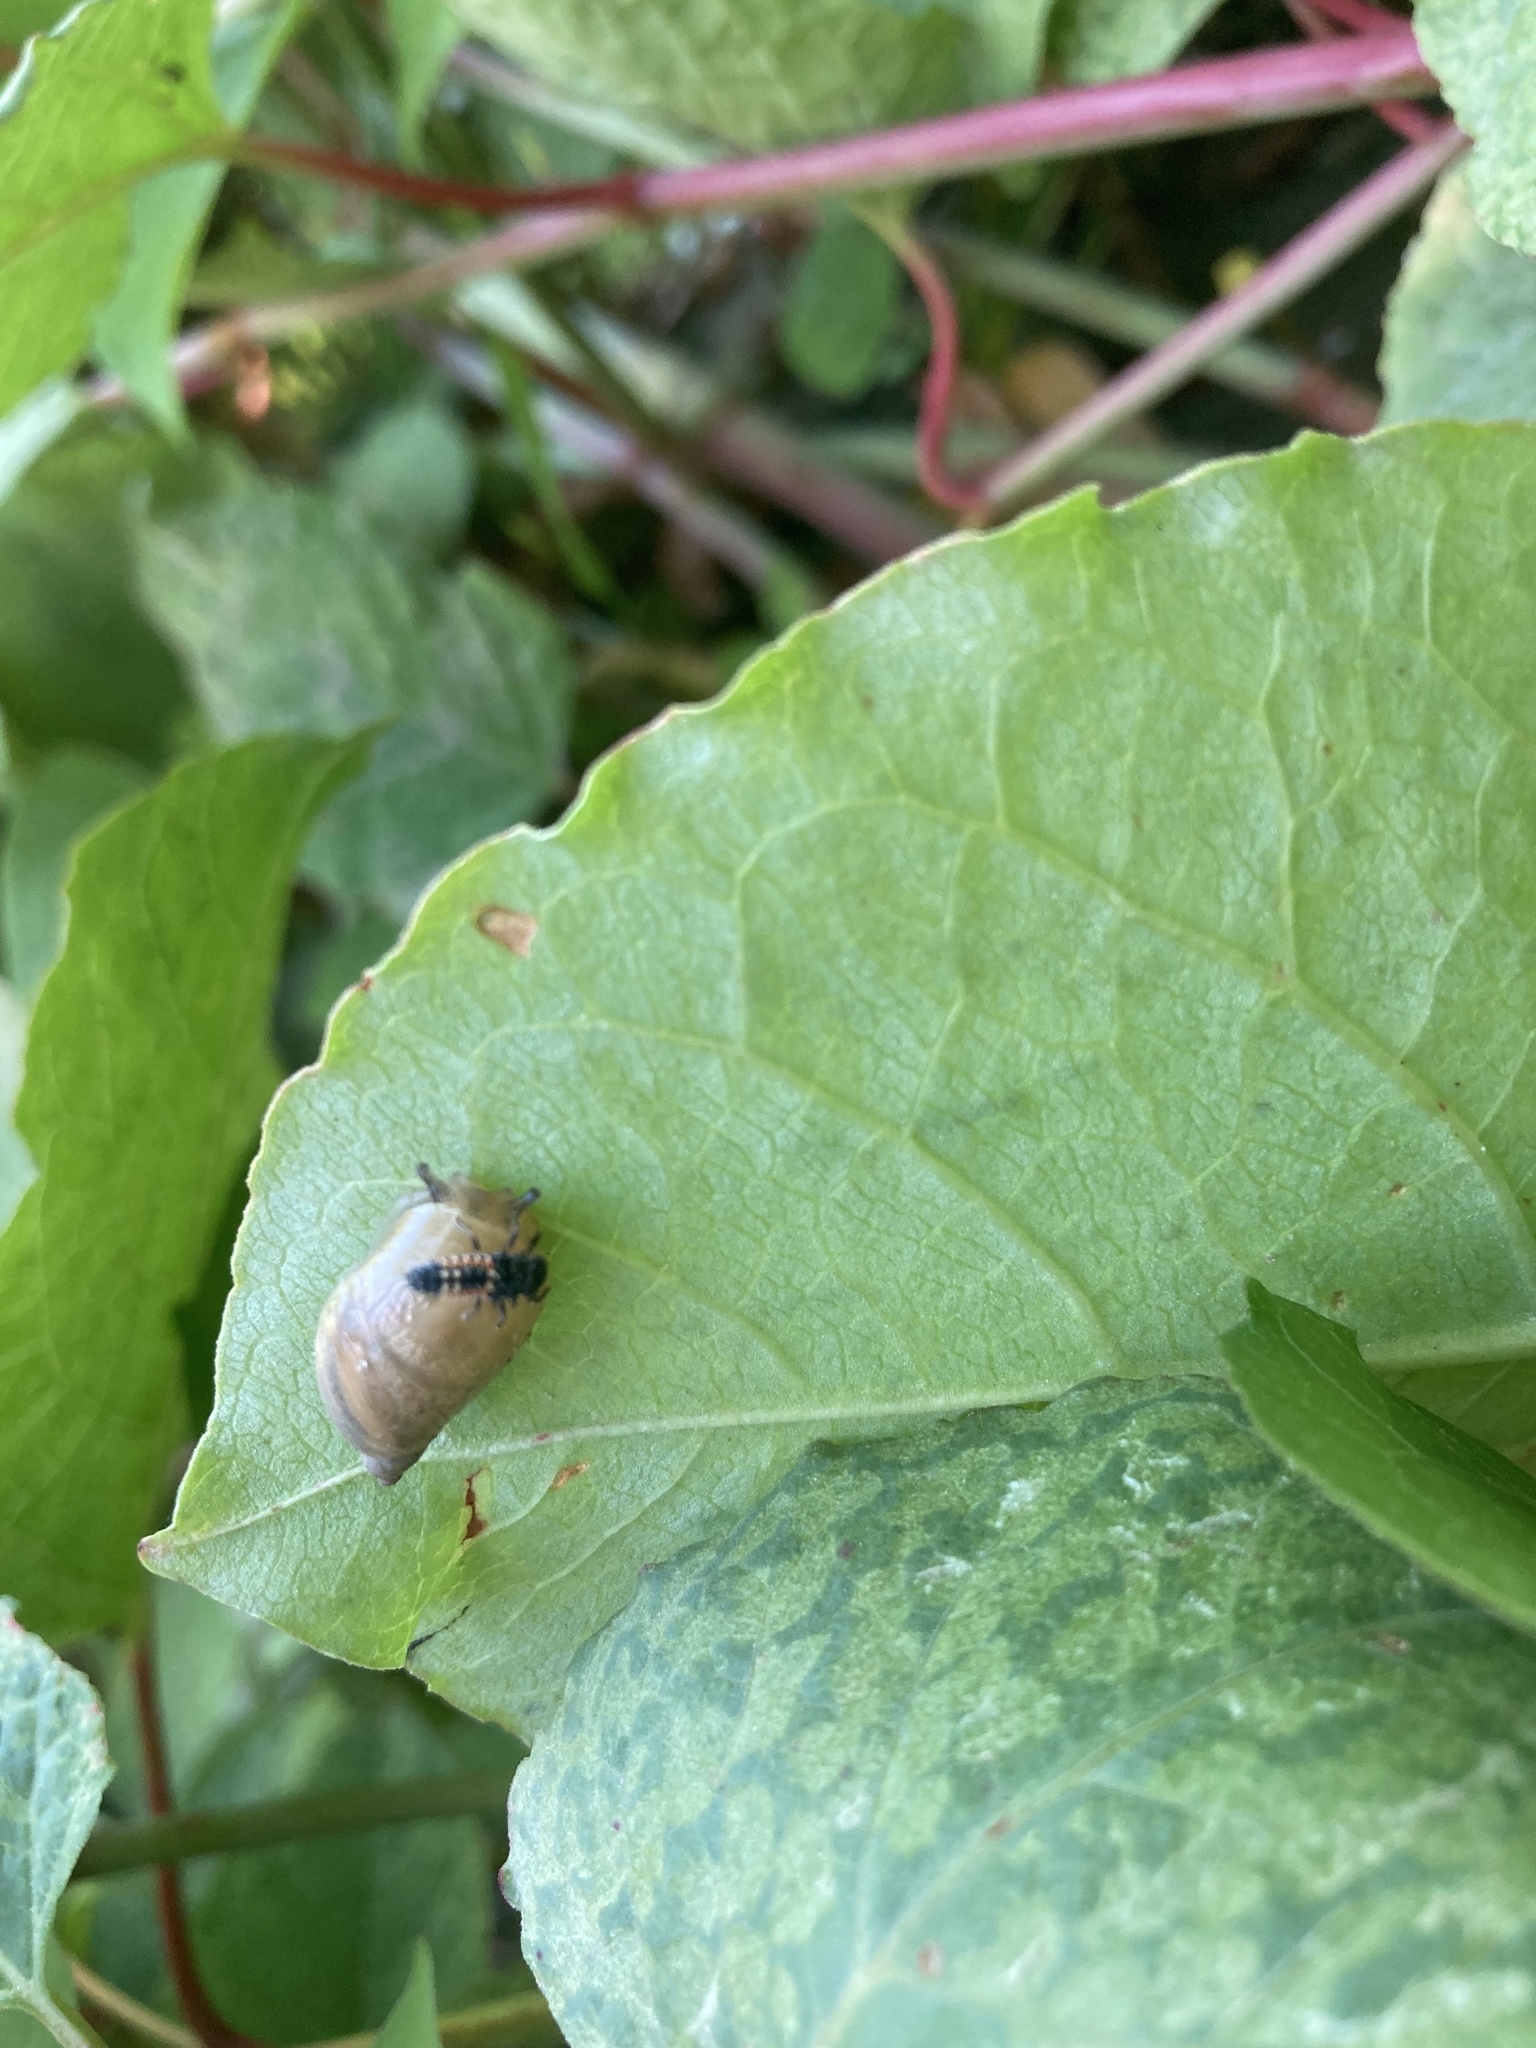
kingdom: Animalia
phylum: Arthropoda
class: Insecta
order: Coleoptera
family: Coccinellidae
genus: Harmonia
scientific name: Harmonia axyridis
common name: Harlequin ladybird
